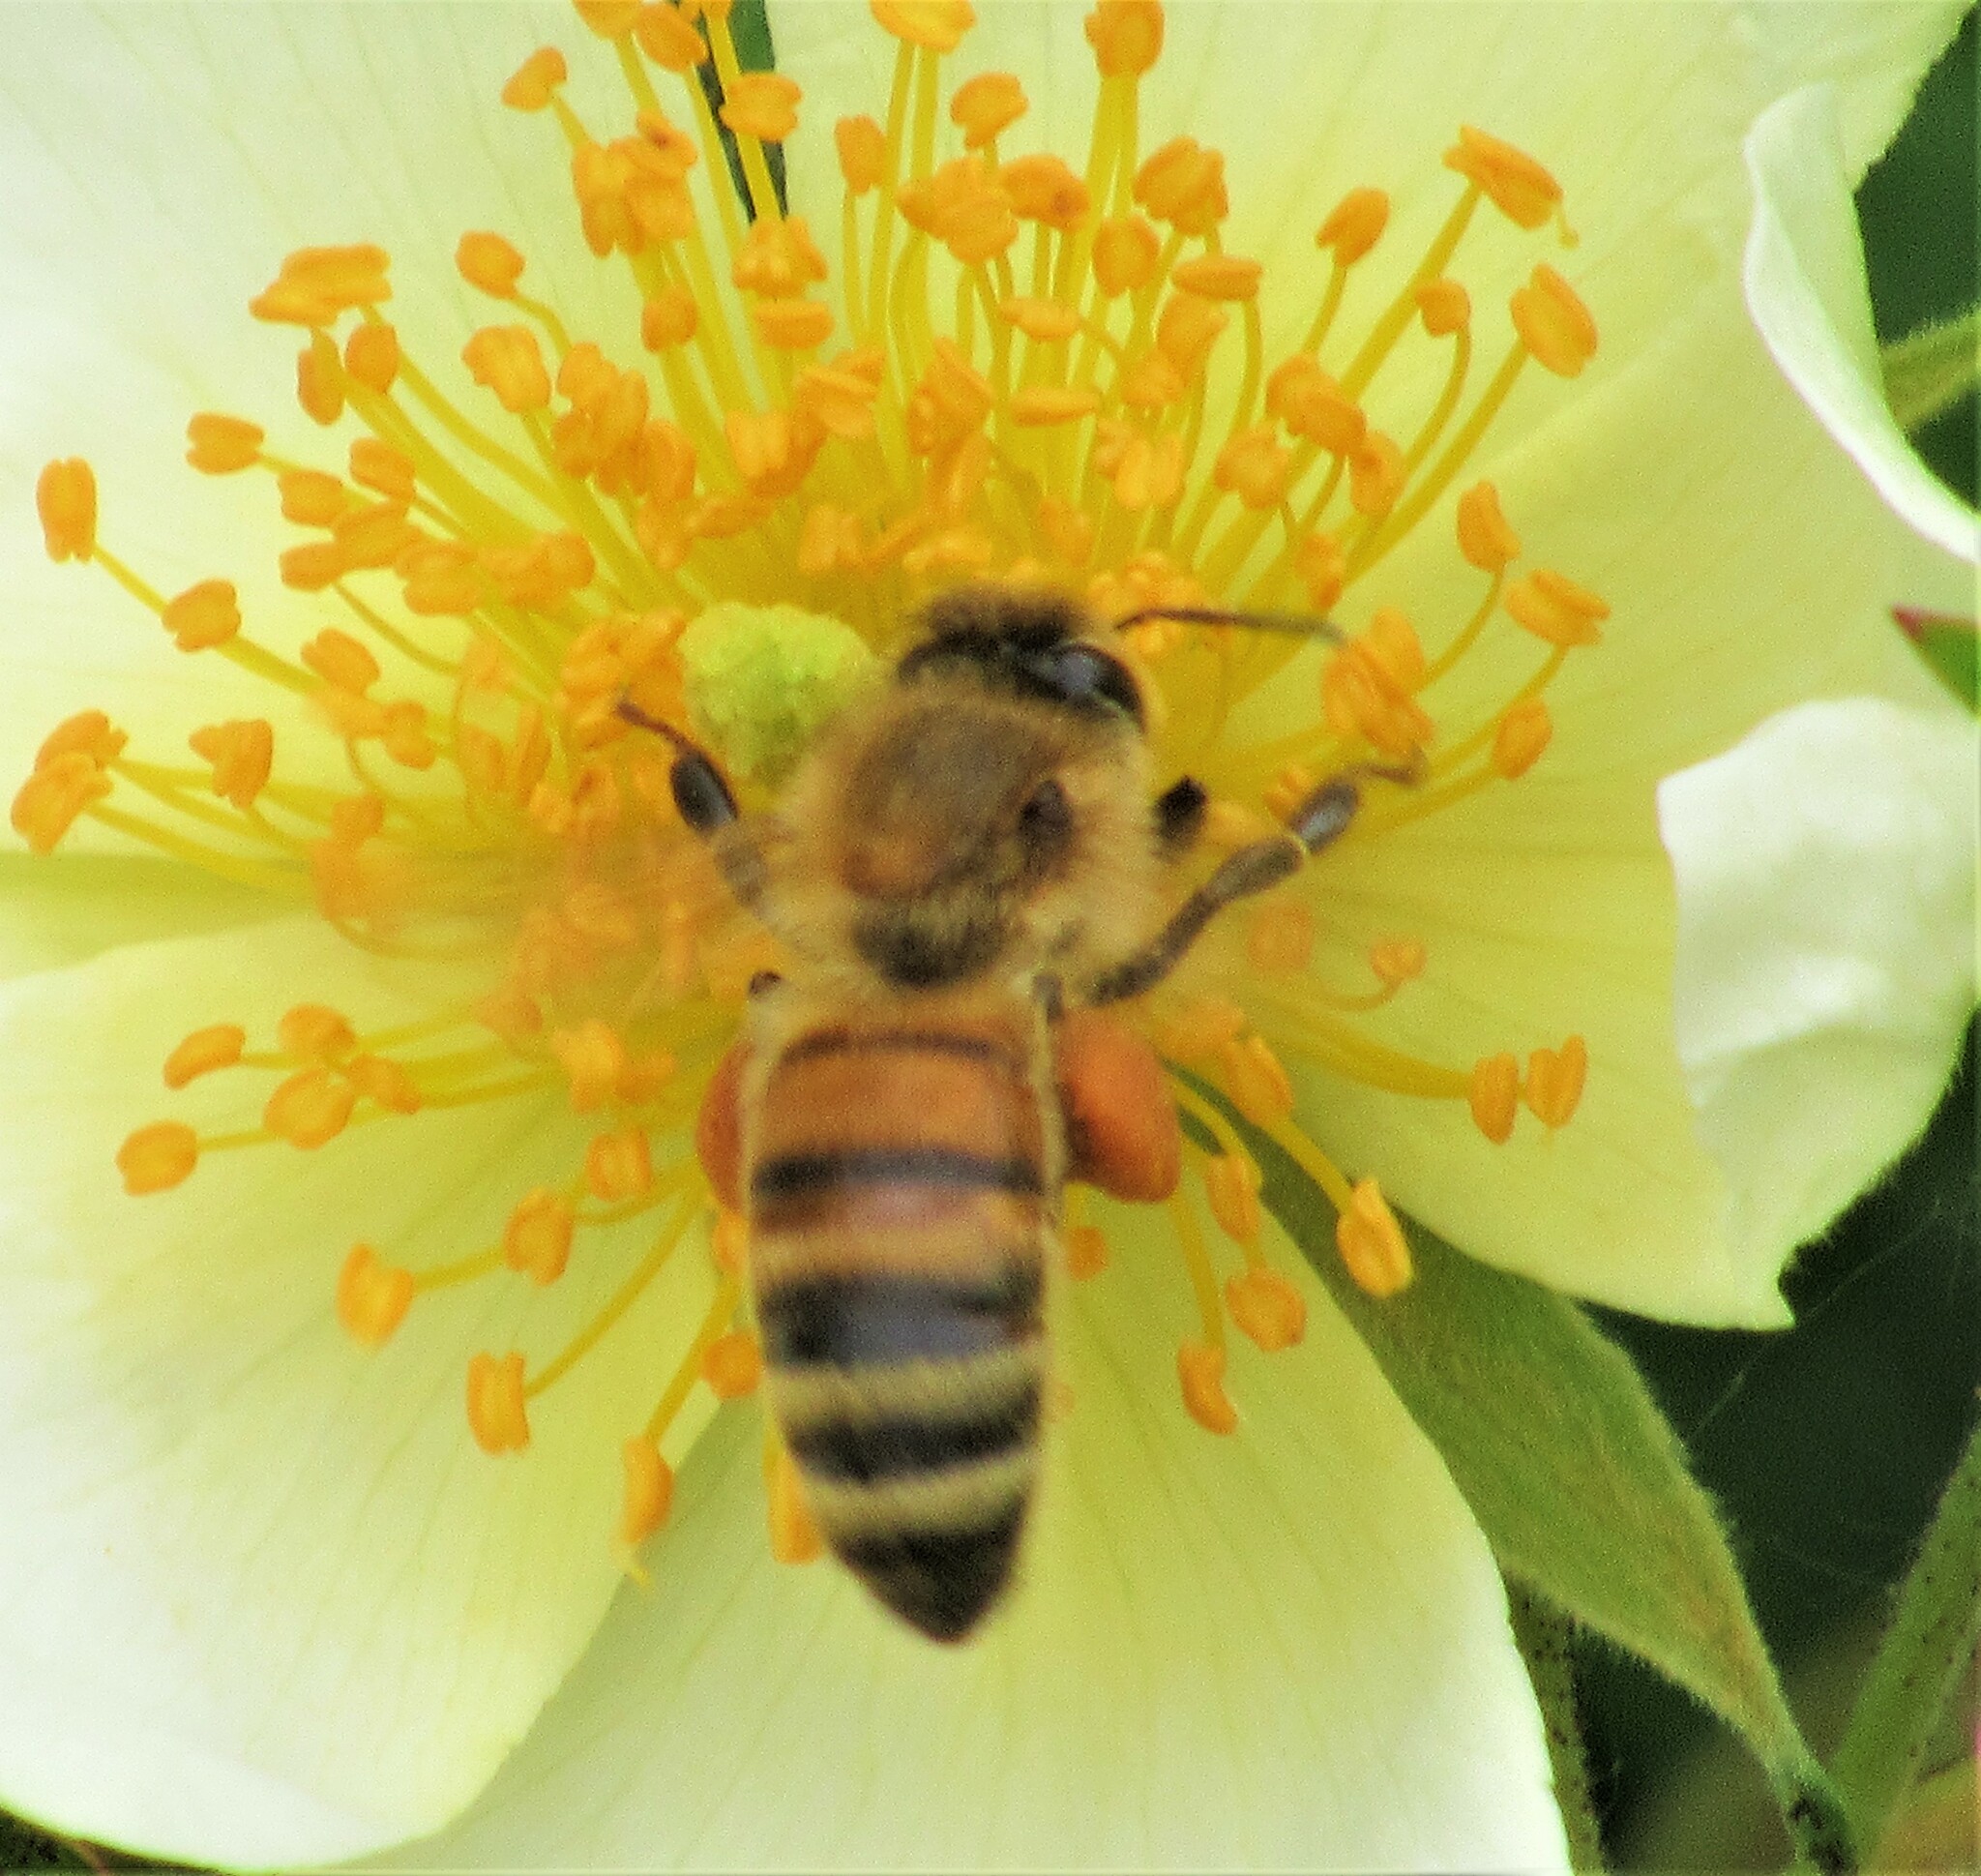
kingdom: Animalia
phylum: Arthropoda
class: Insecta
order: Hymenoptera
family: Apidae
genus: Apis
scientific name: Apis mellifera
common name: Honey bee
